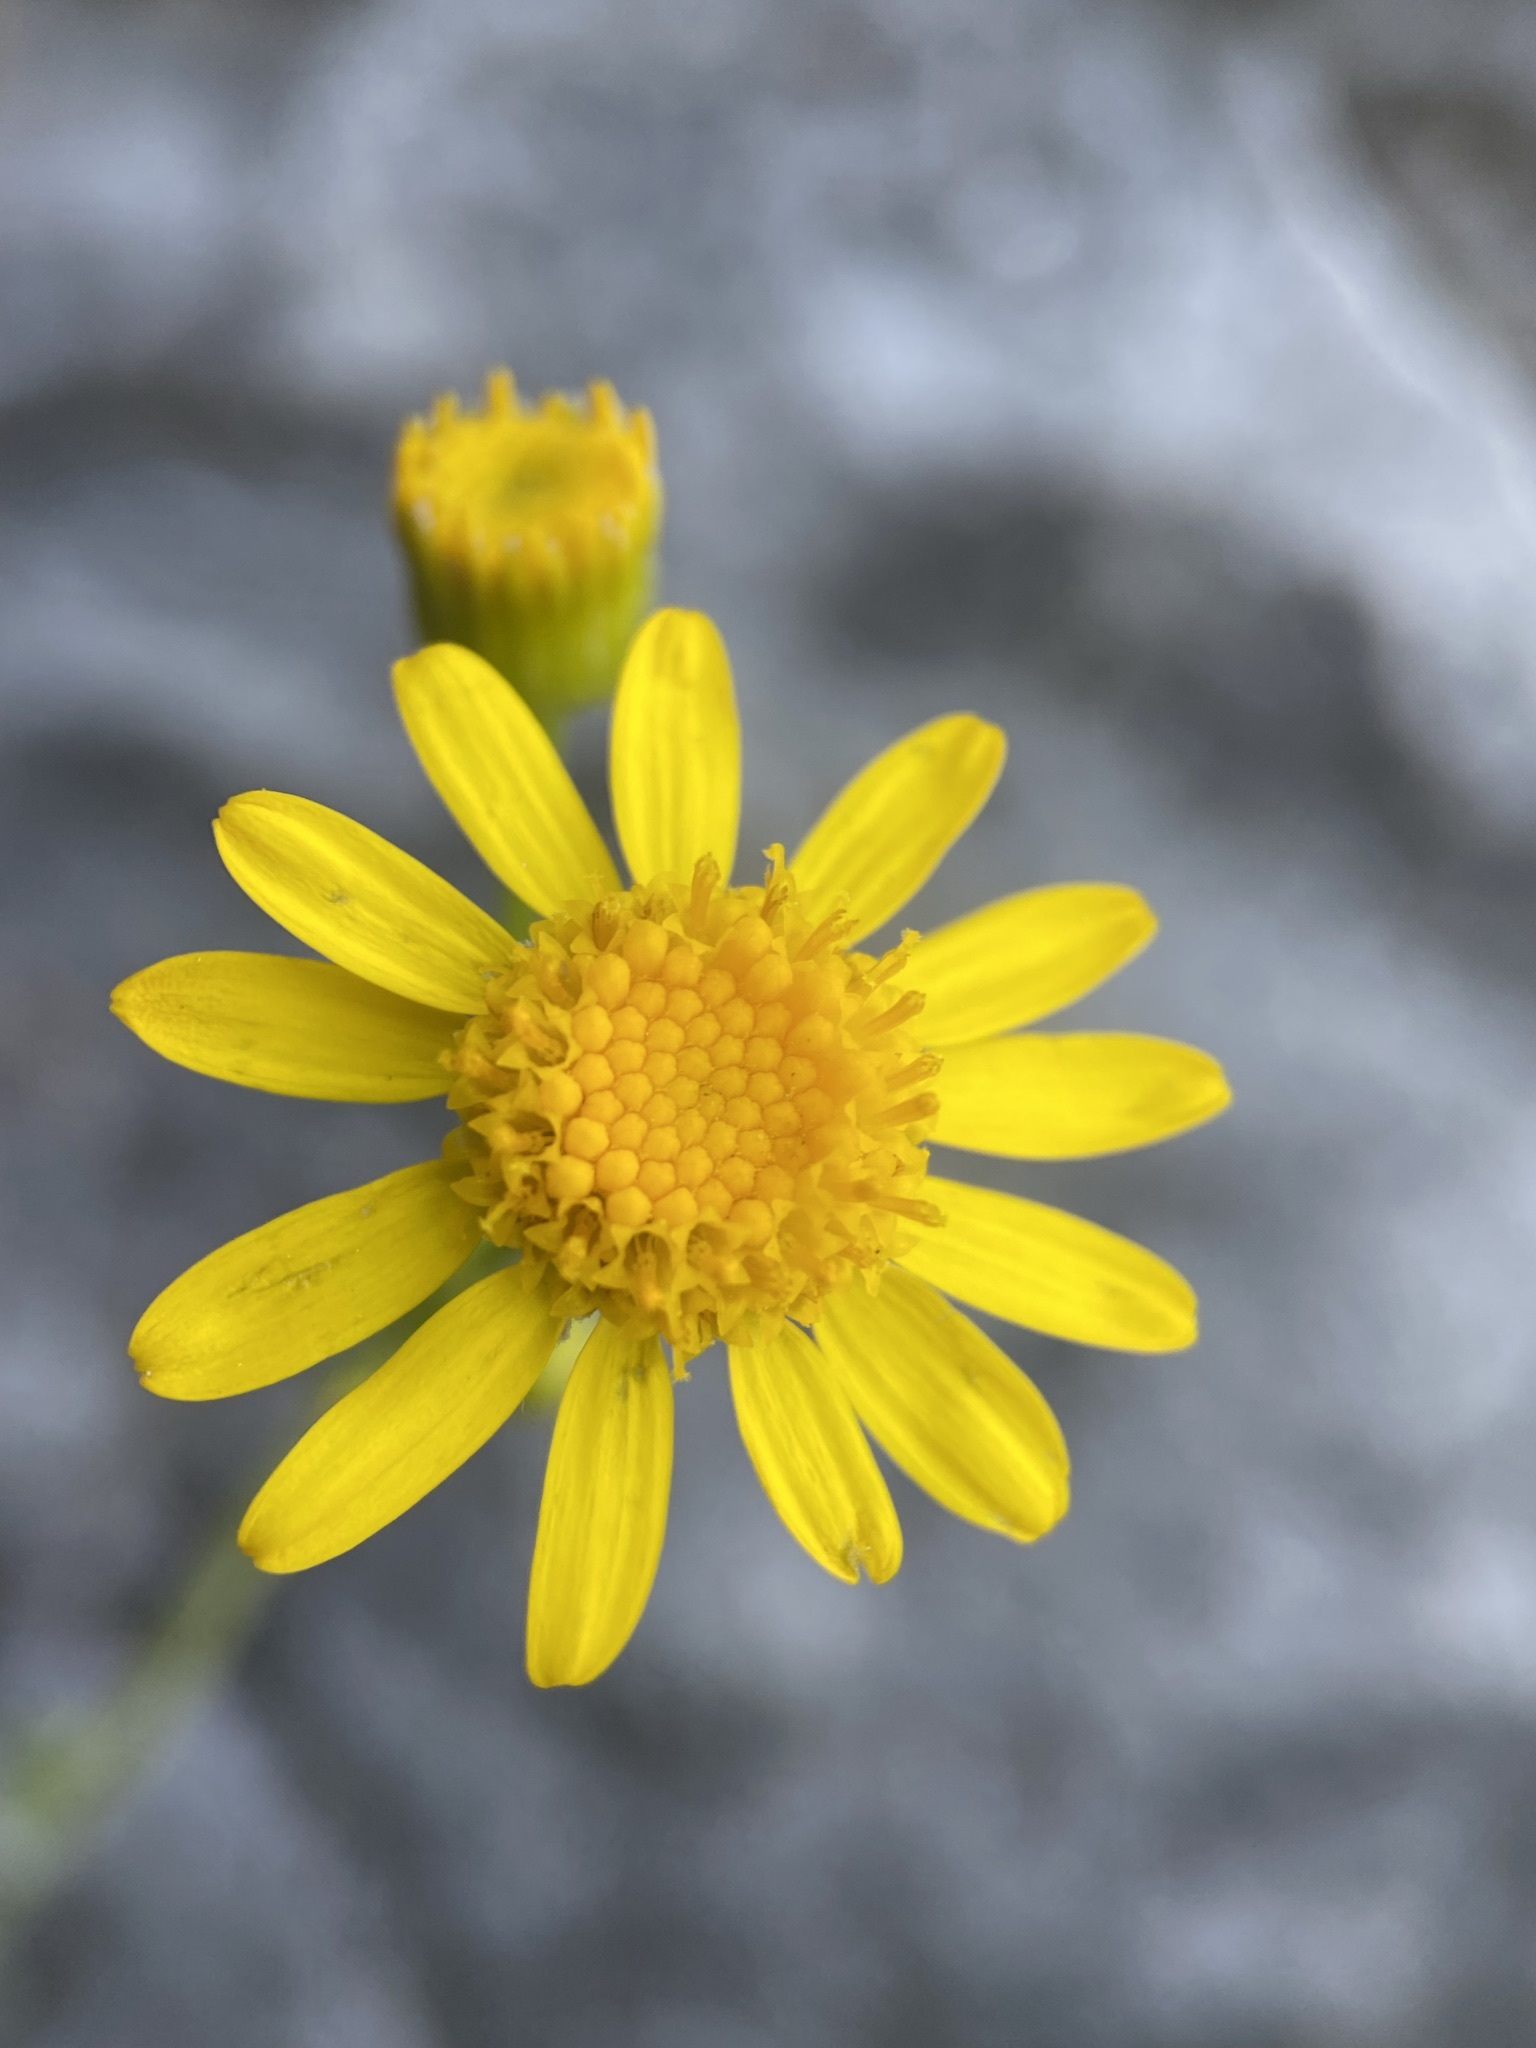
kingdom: Plantae
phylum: Tracheophyta
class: Magnoliopsida
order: Asterales
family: Asteraceae
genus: Packera
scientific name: Packera cana
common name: Woolly groundsel
